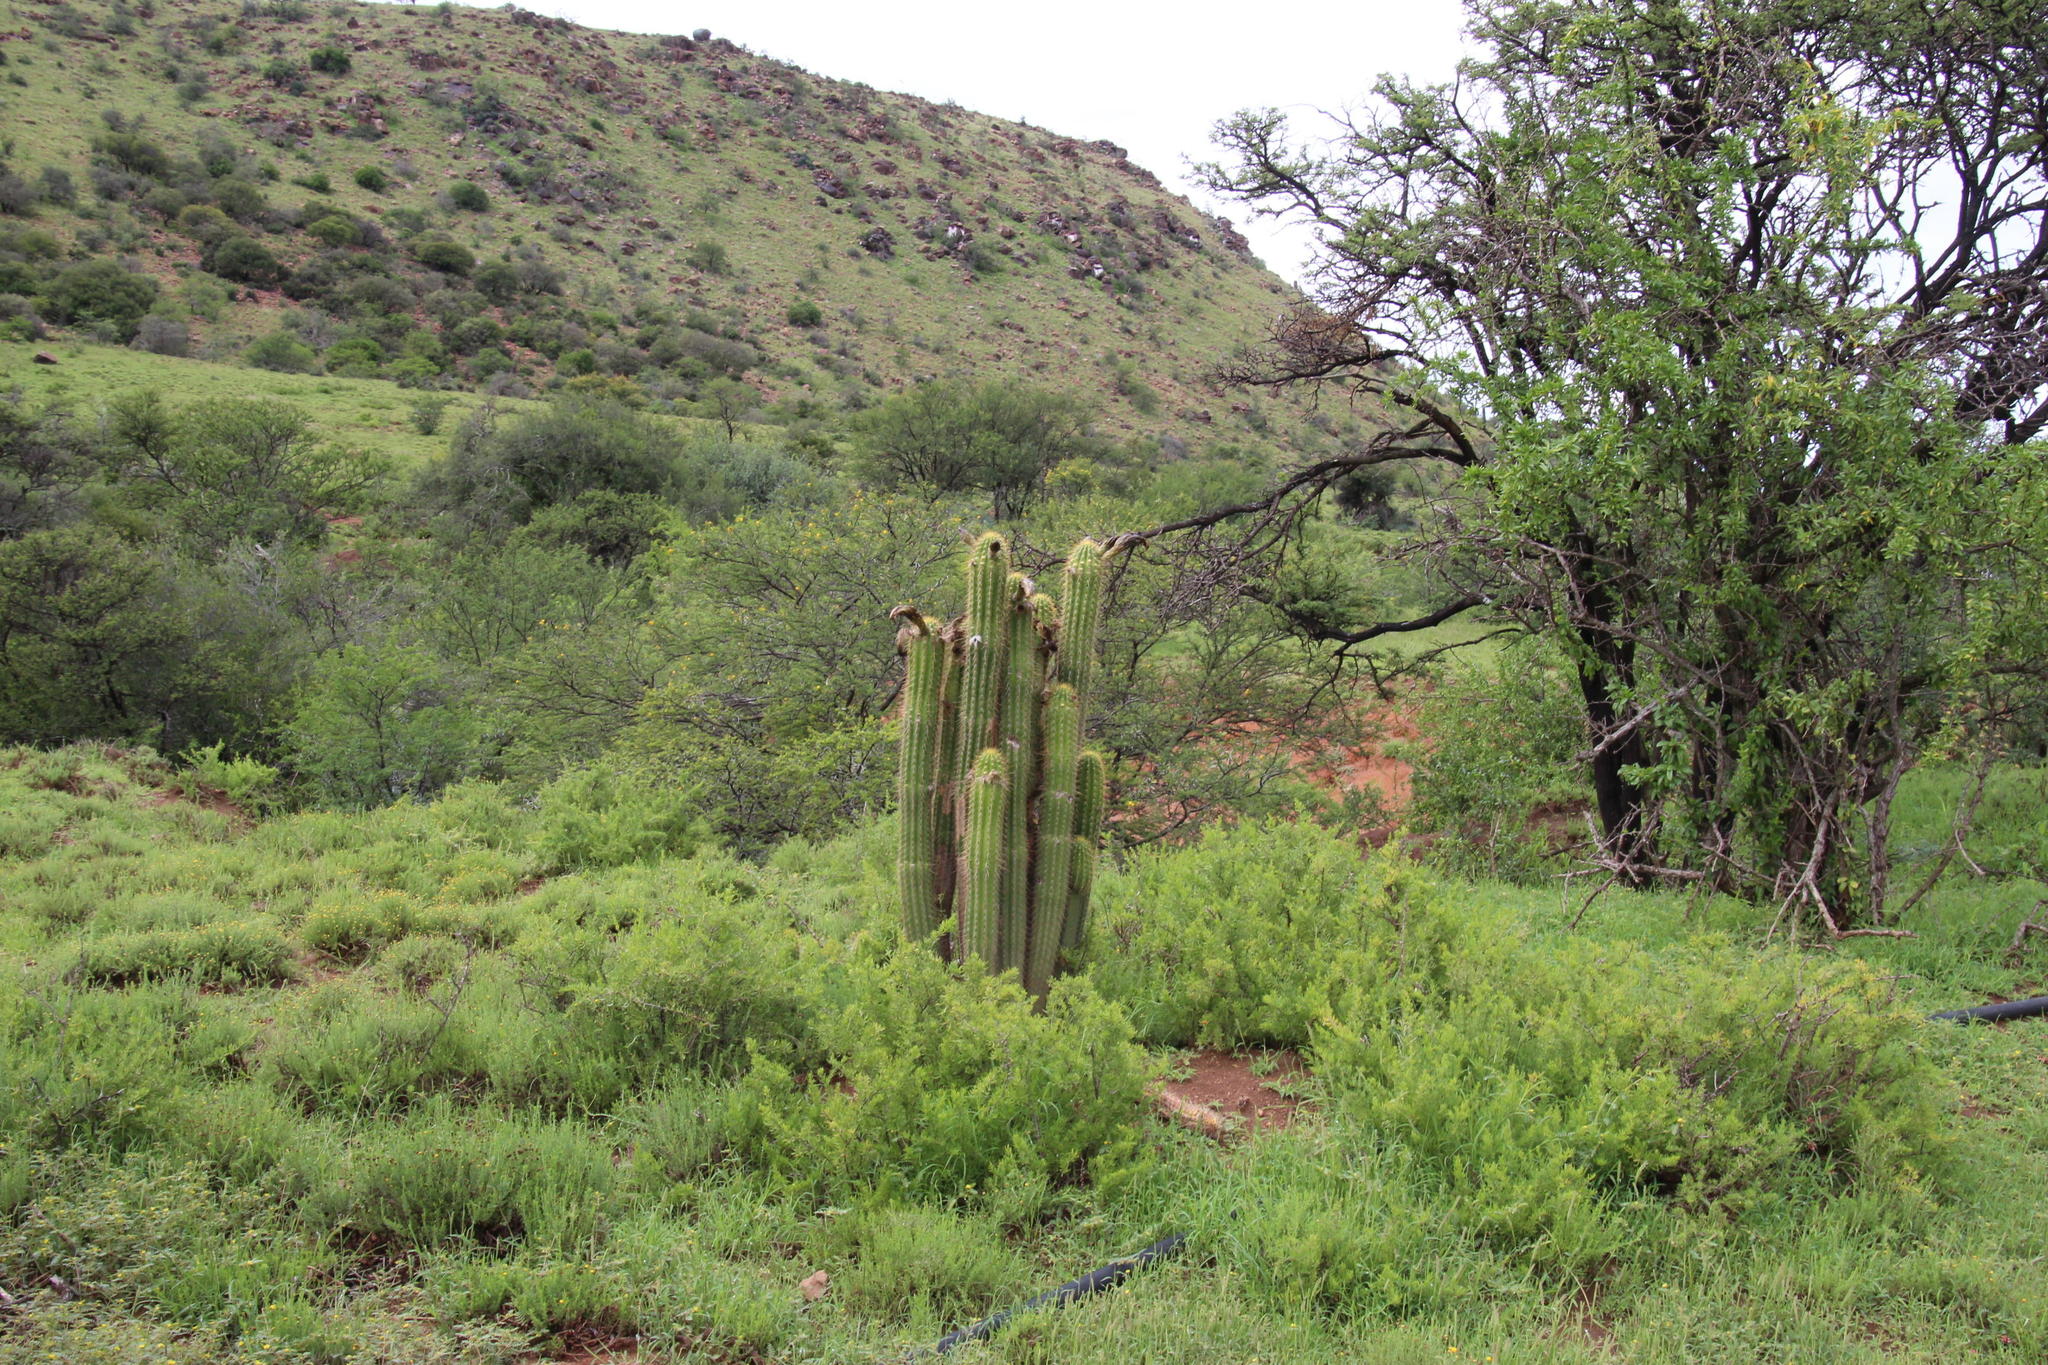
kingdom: Plantae
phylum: Tracheophyta
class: Magnoliopsida
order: Caryophyllales
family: Cactaceae
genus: Soehrensia
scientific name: Soehrensia spachiana
